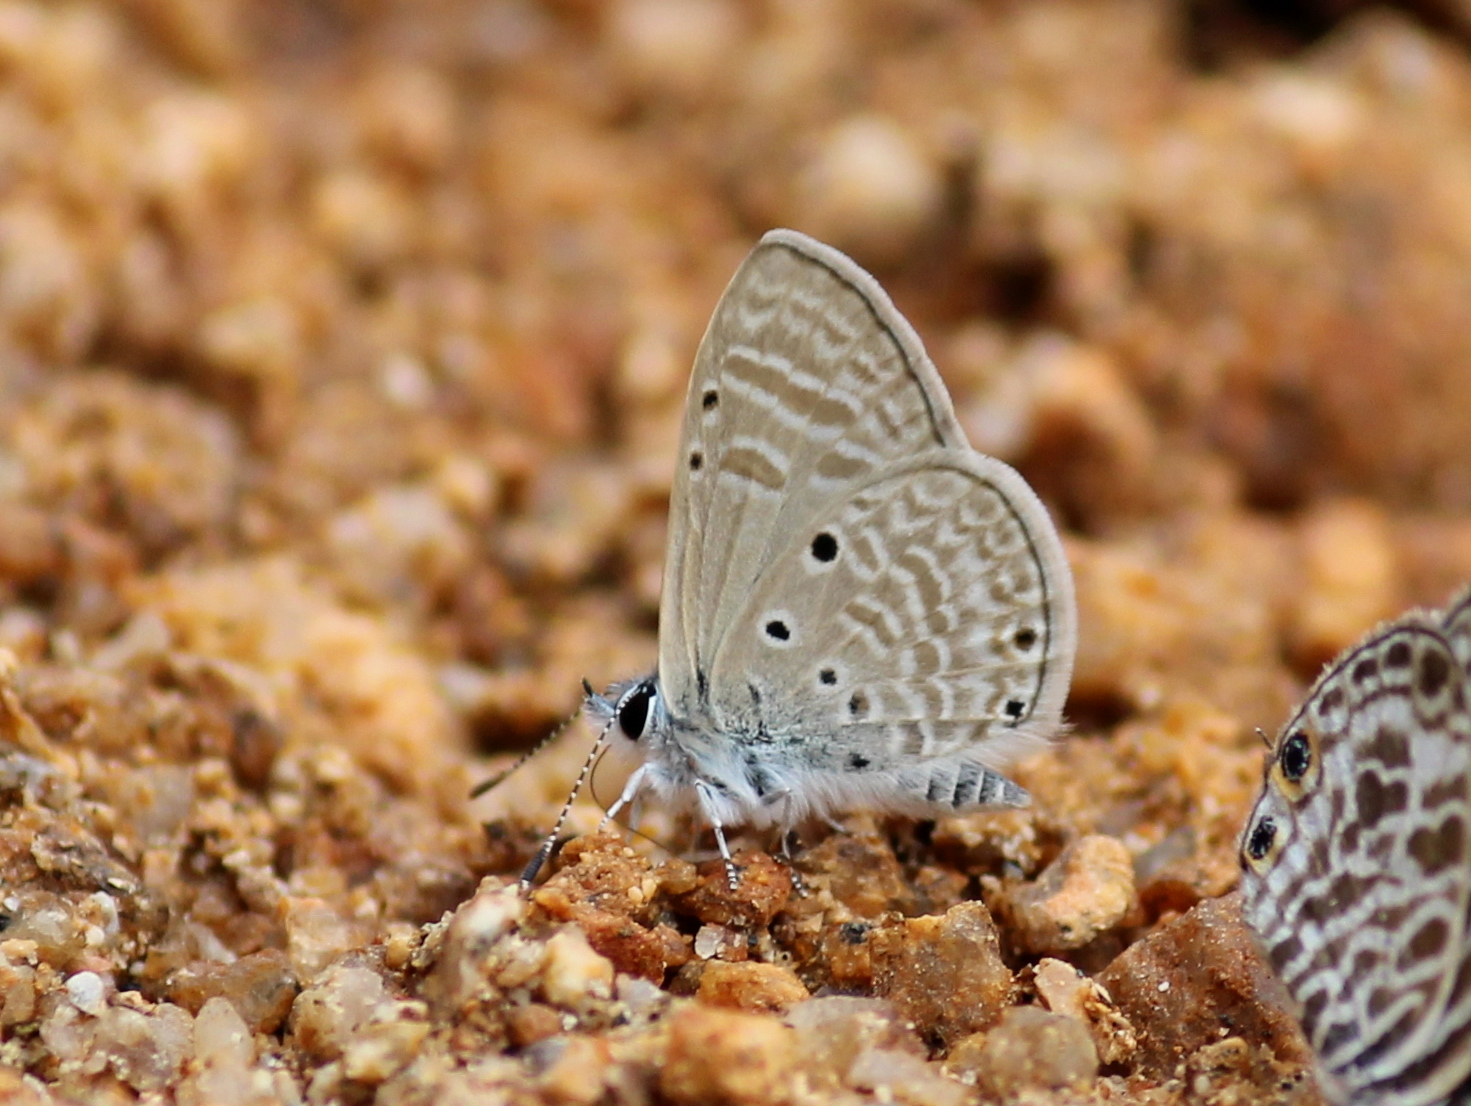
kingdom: Animalia
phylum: Arthropoda
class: Insecta
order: Lepidoptera
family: Lycaenidae
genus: Azanus
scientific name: Azanus ubaldus
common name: Desert babul blue
